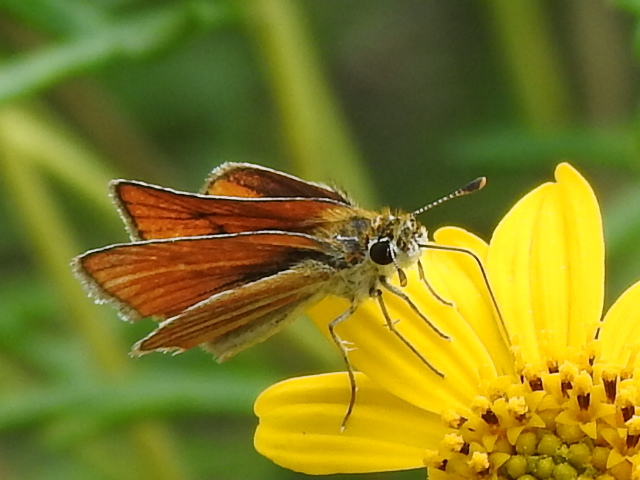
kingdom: Animalia
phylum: Arthropoda
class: Insecta
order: Lepidoptera
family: Hesperiidae
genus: Copaeodes
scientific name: Copaeodes minima
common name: Southern skipperling
